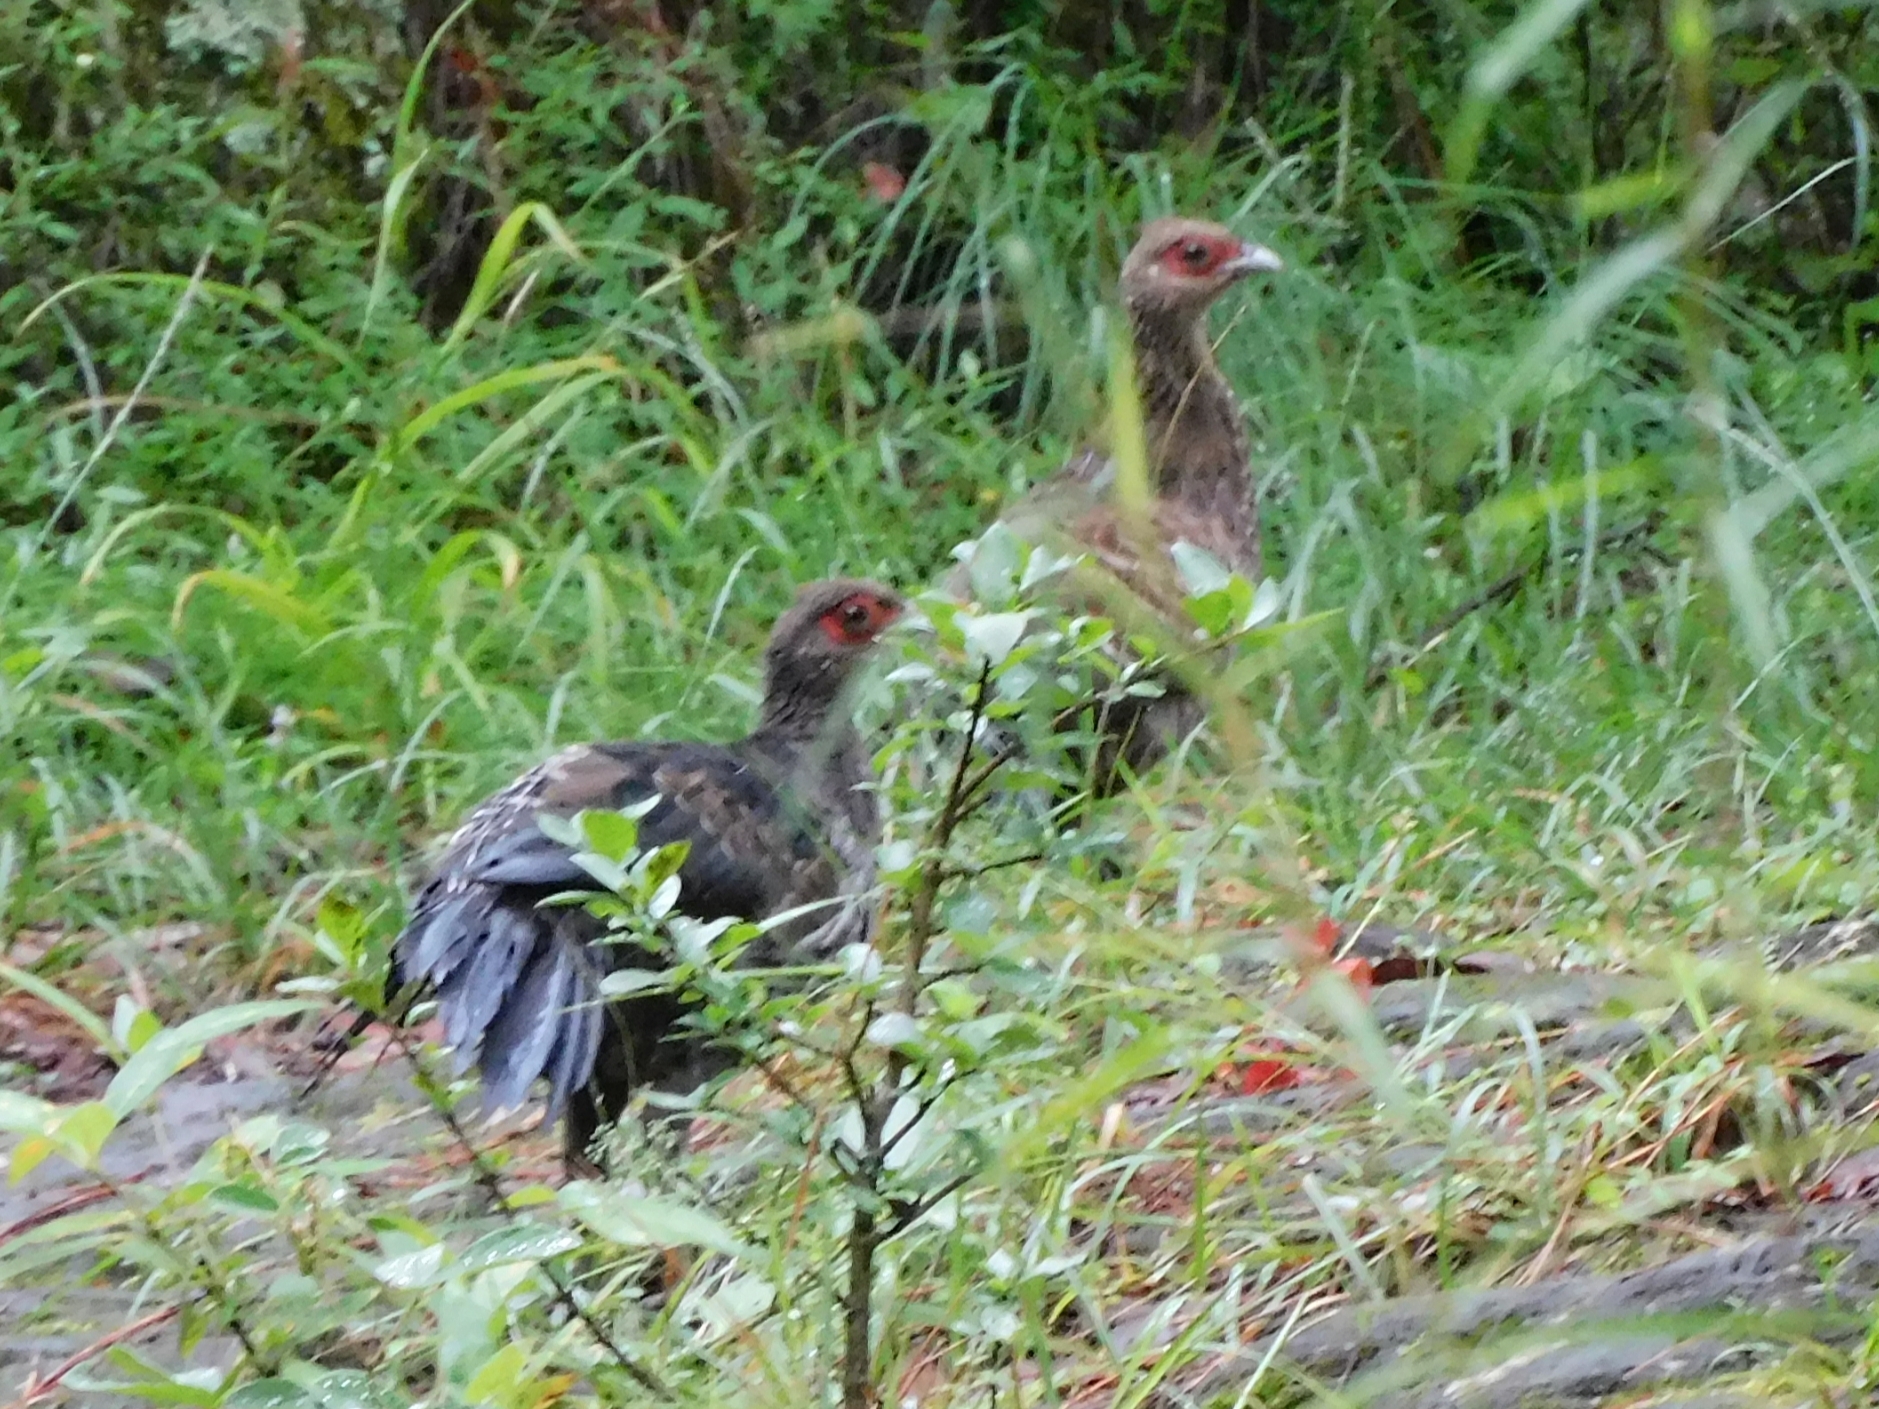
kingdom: Animalia
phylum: Chordata
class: Aves
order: Galliformes
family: Phasianidae
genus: Lophura
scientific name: Lophura leucomelanos
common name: Kalij pheasant
